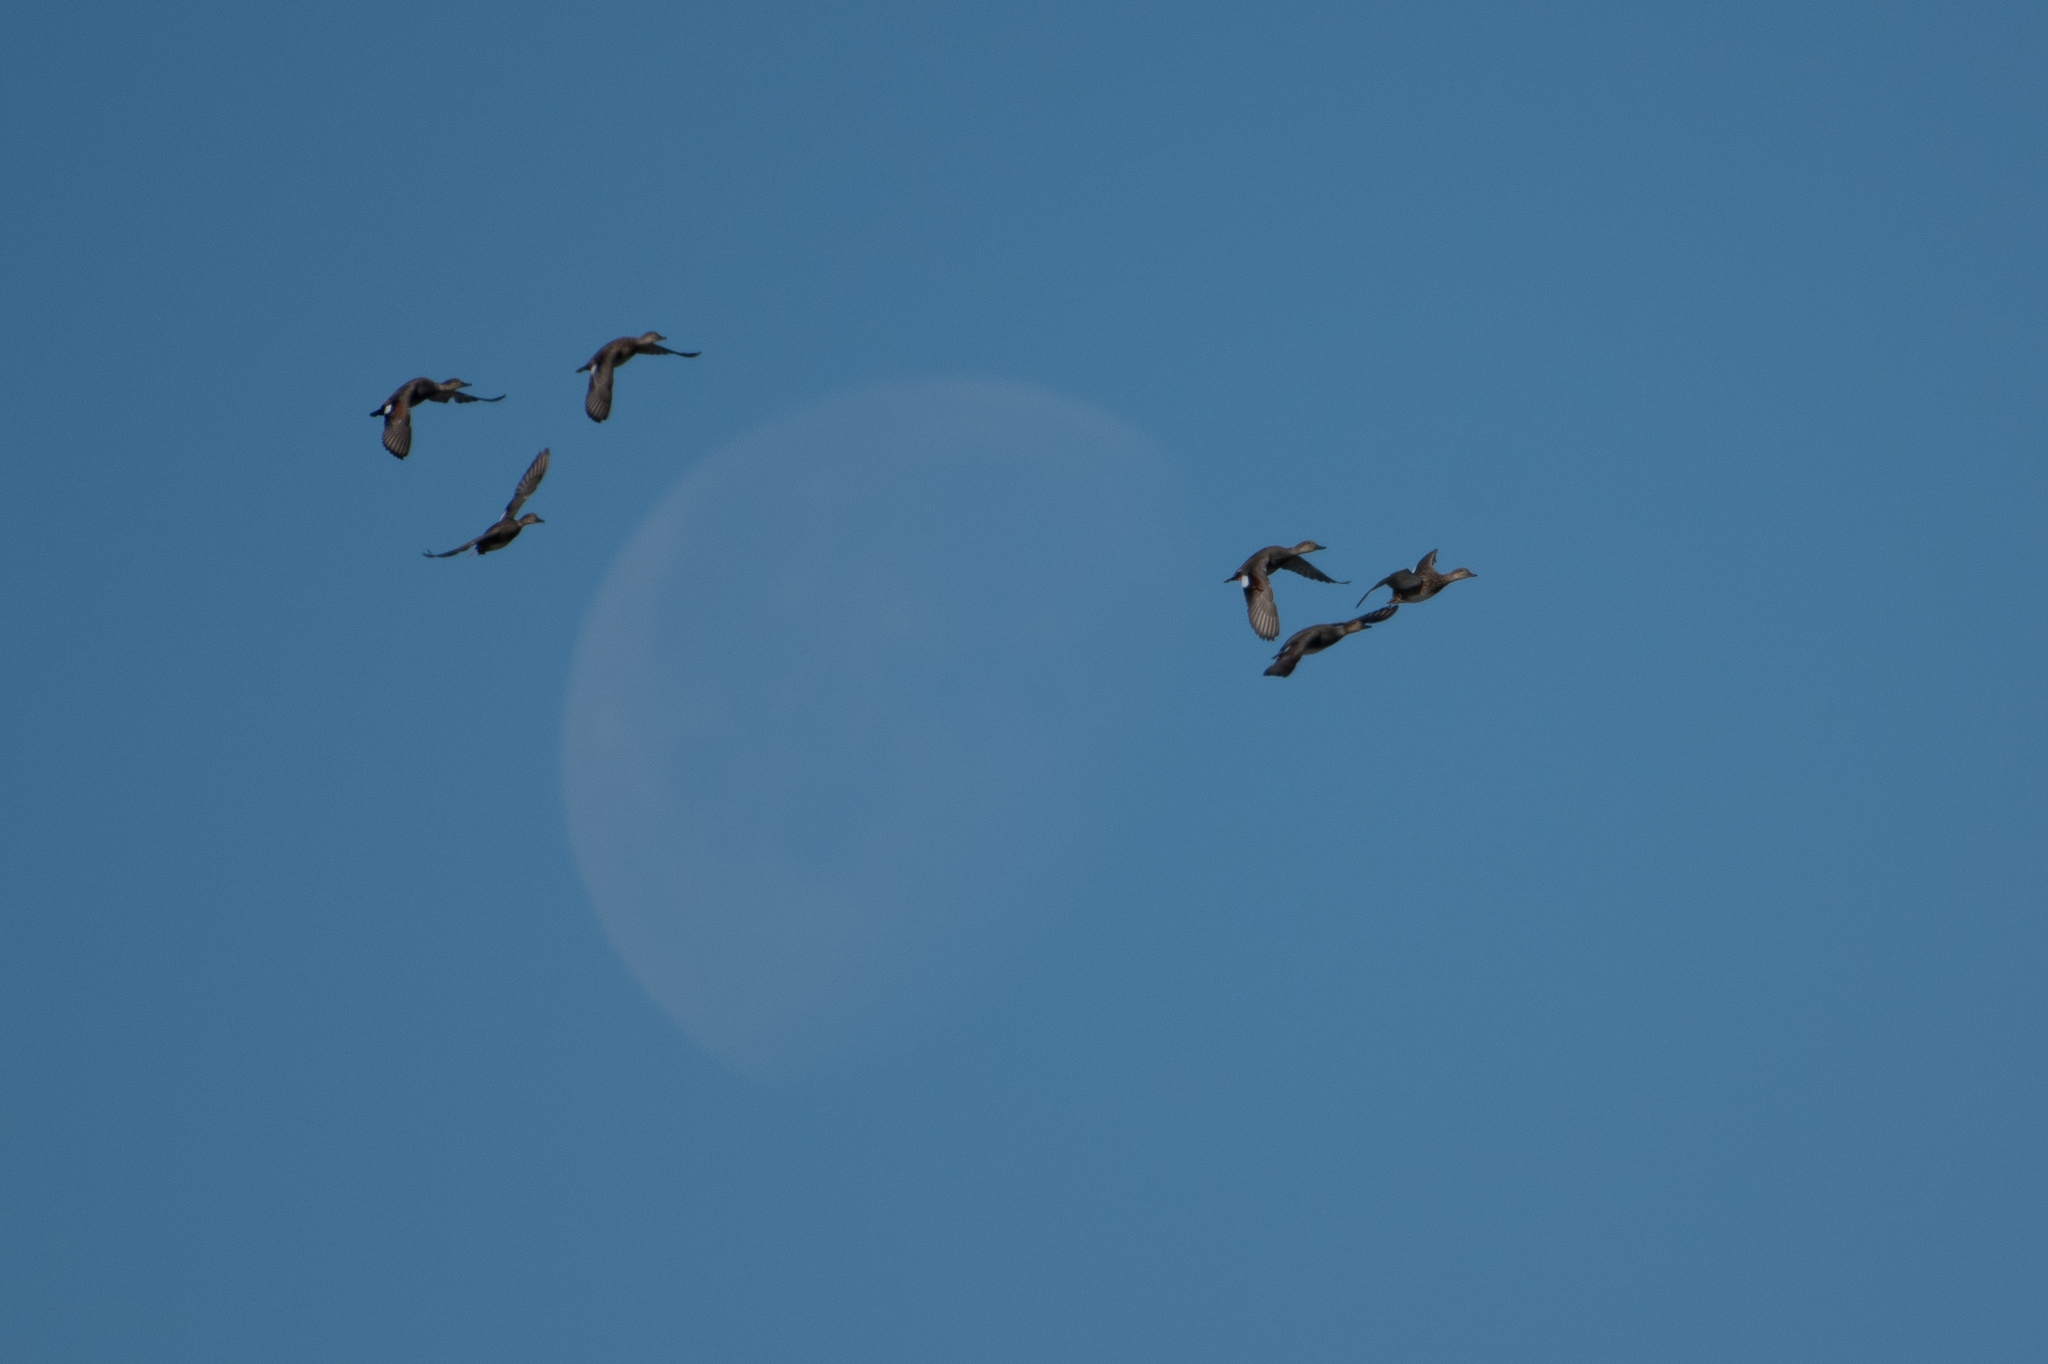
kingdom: Animalia
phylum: Chordata
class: Aves
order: Anseriformes
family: Anatidae
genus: Mareca
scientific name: Mareca strepera
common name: Gadwall
